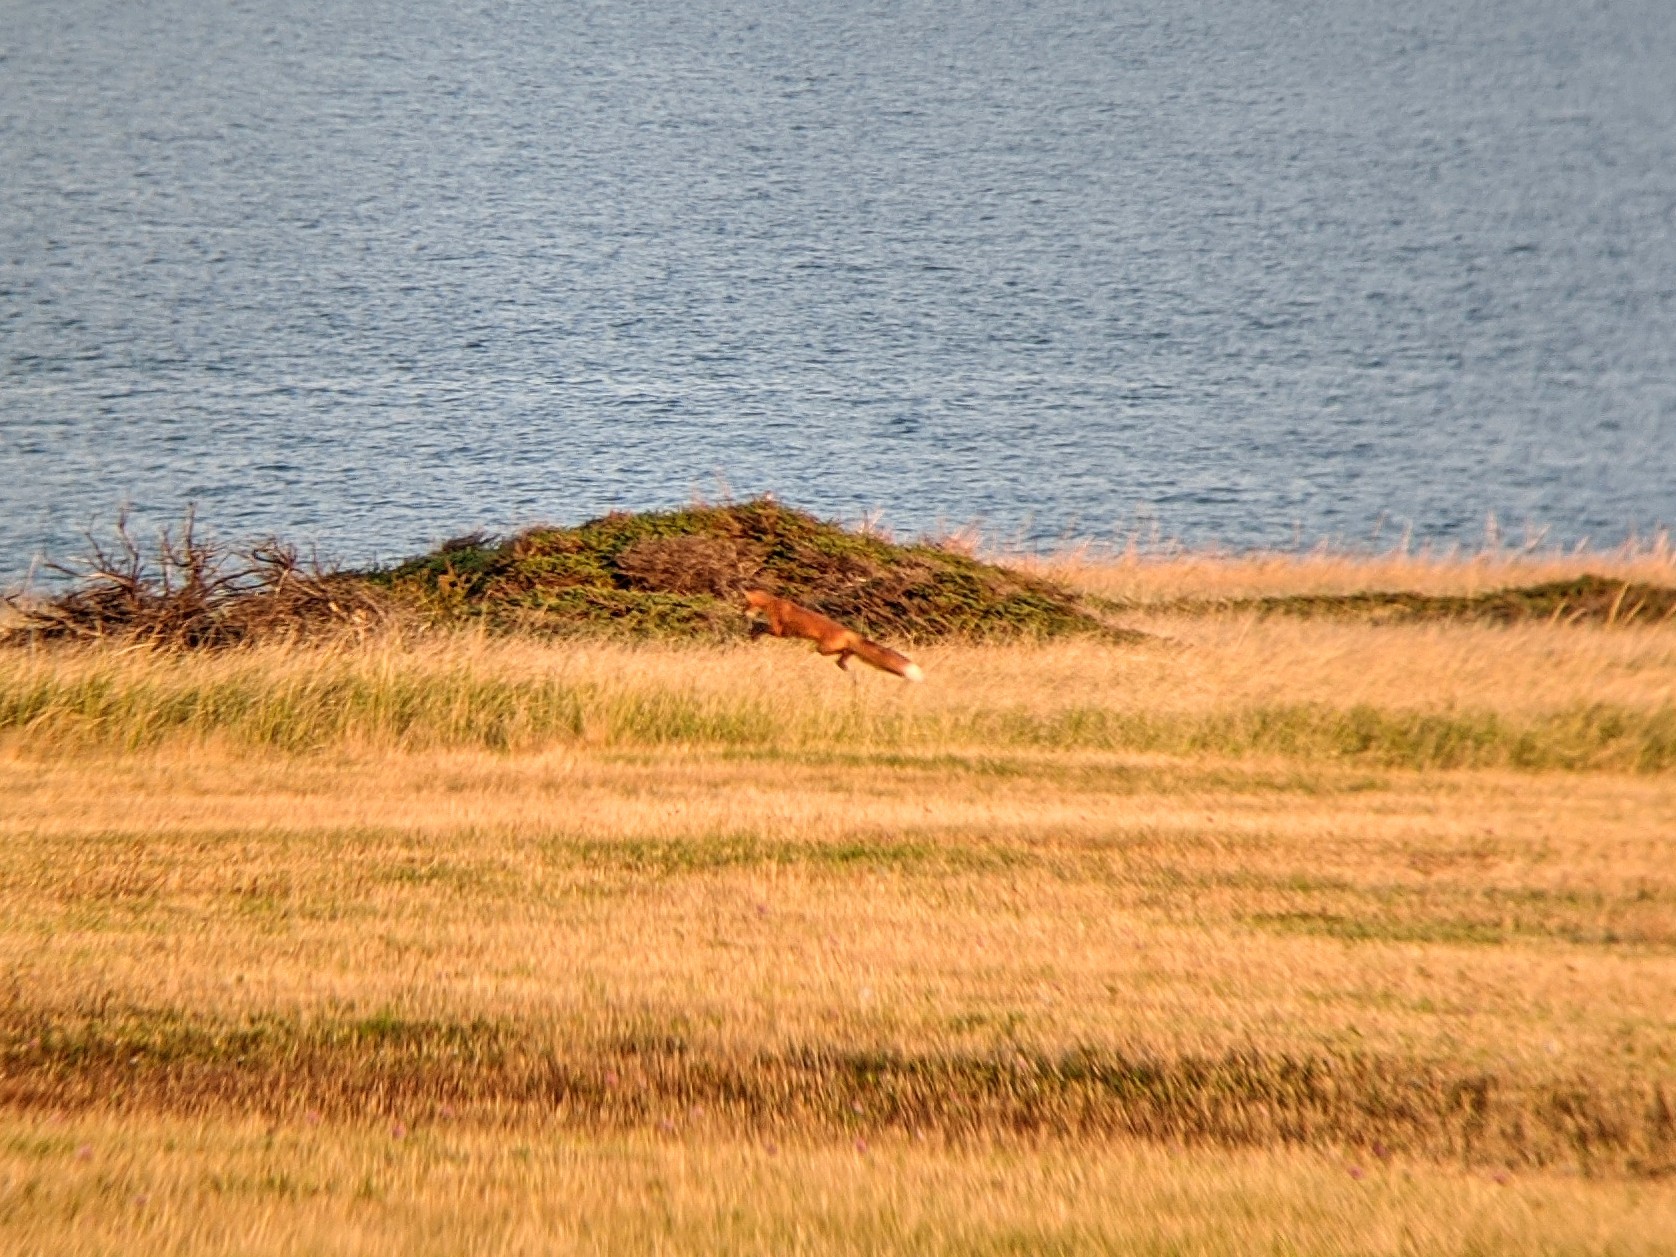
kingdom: Animalia
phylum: Chordata
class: Mammalia
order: Carnivora
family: Canidae
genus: Vulpes
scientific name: Vulpes vulpes
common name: Red fox
